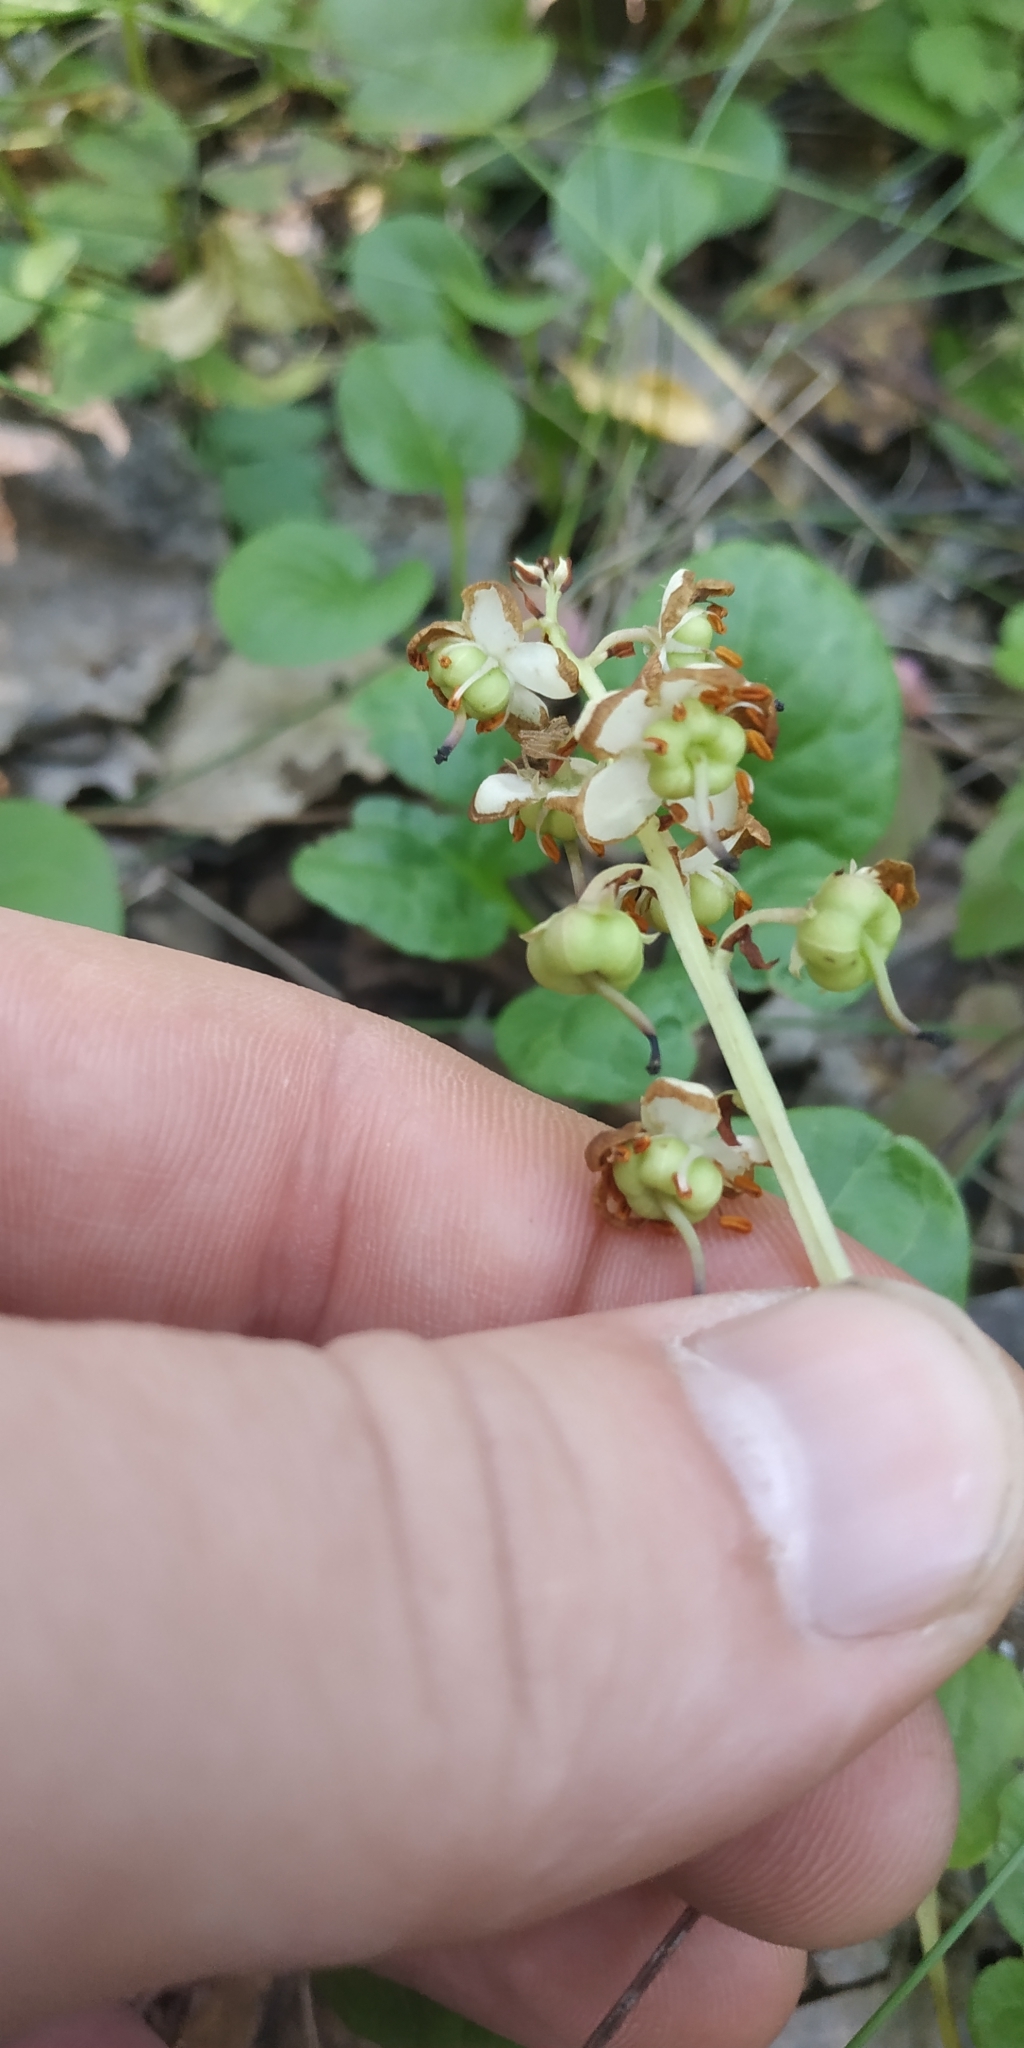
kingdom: Plantae
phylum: Tracheophyta
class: Magnoliopsida
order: Ericales
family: Ericaceae
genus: Pyrola
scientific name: Pyrola rotundifolia
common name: Round-leaved wintergreen
